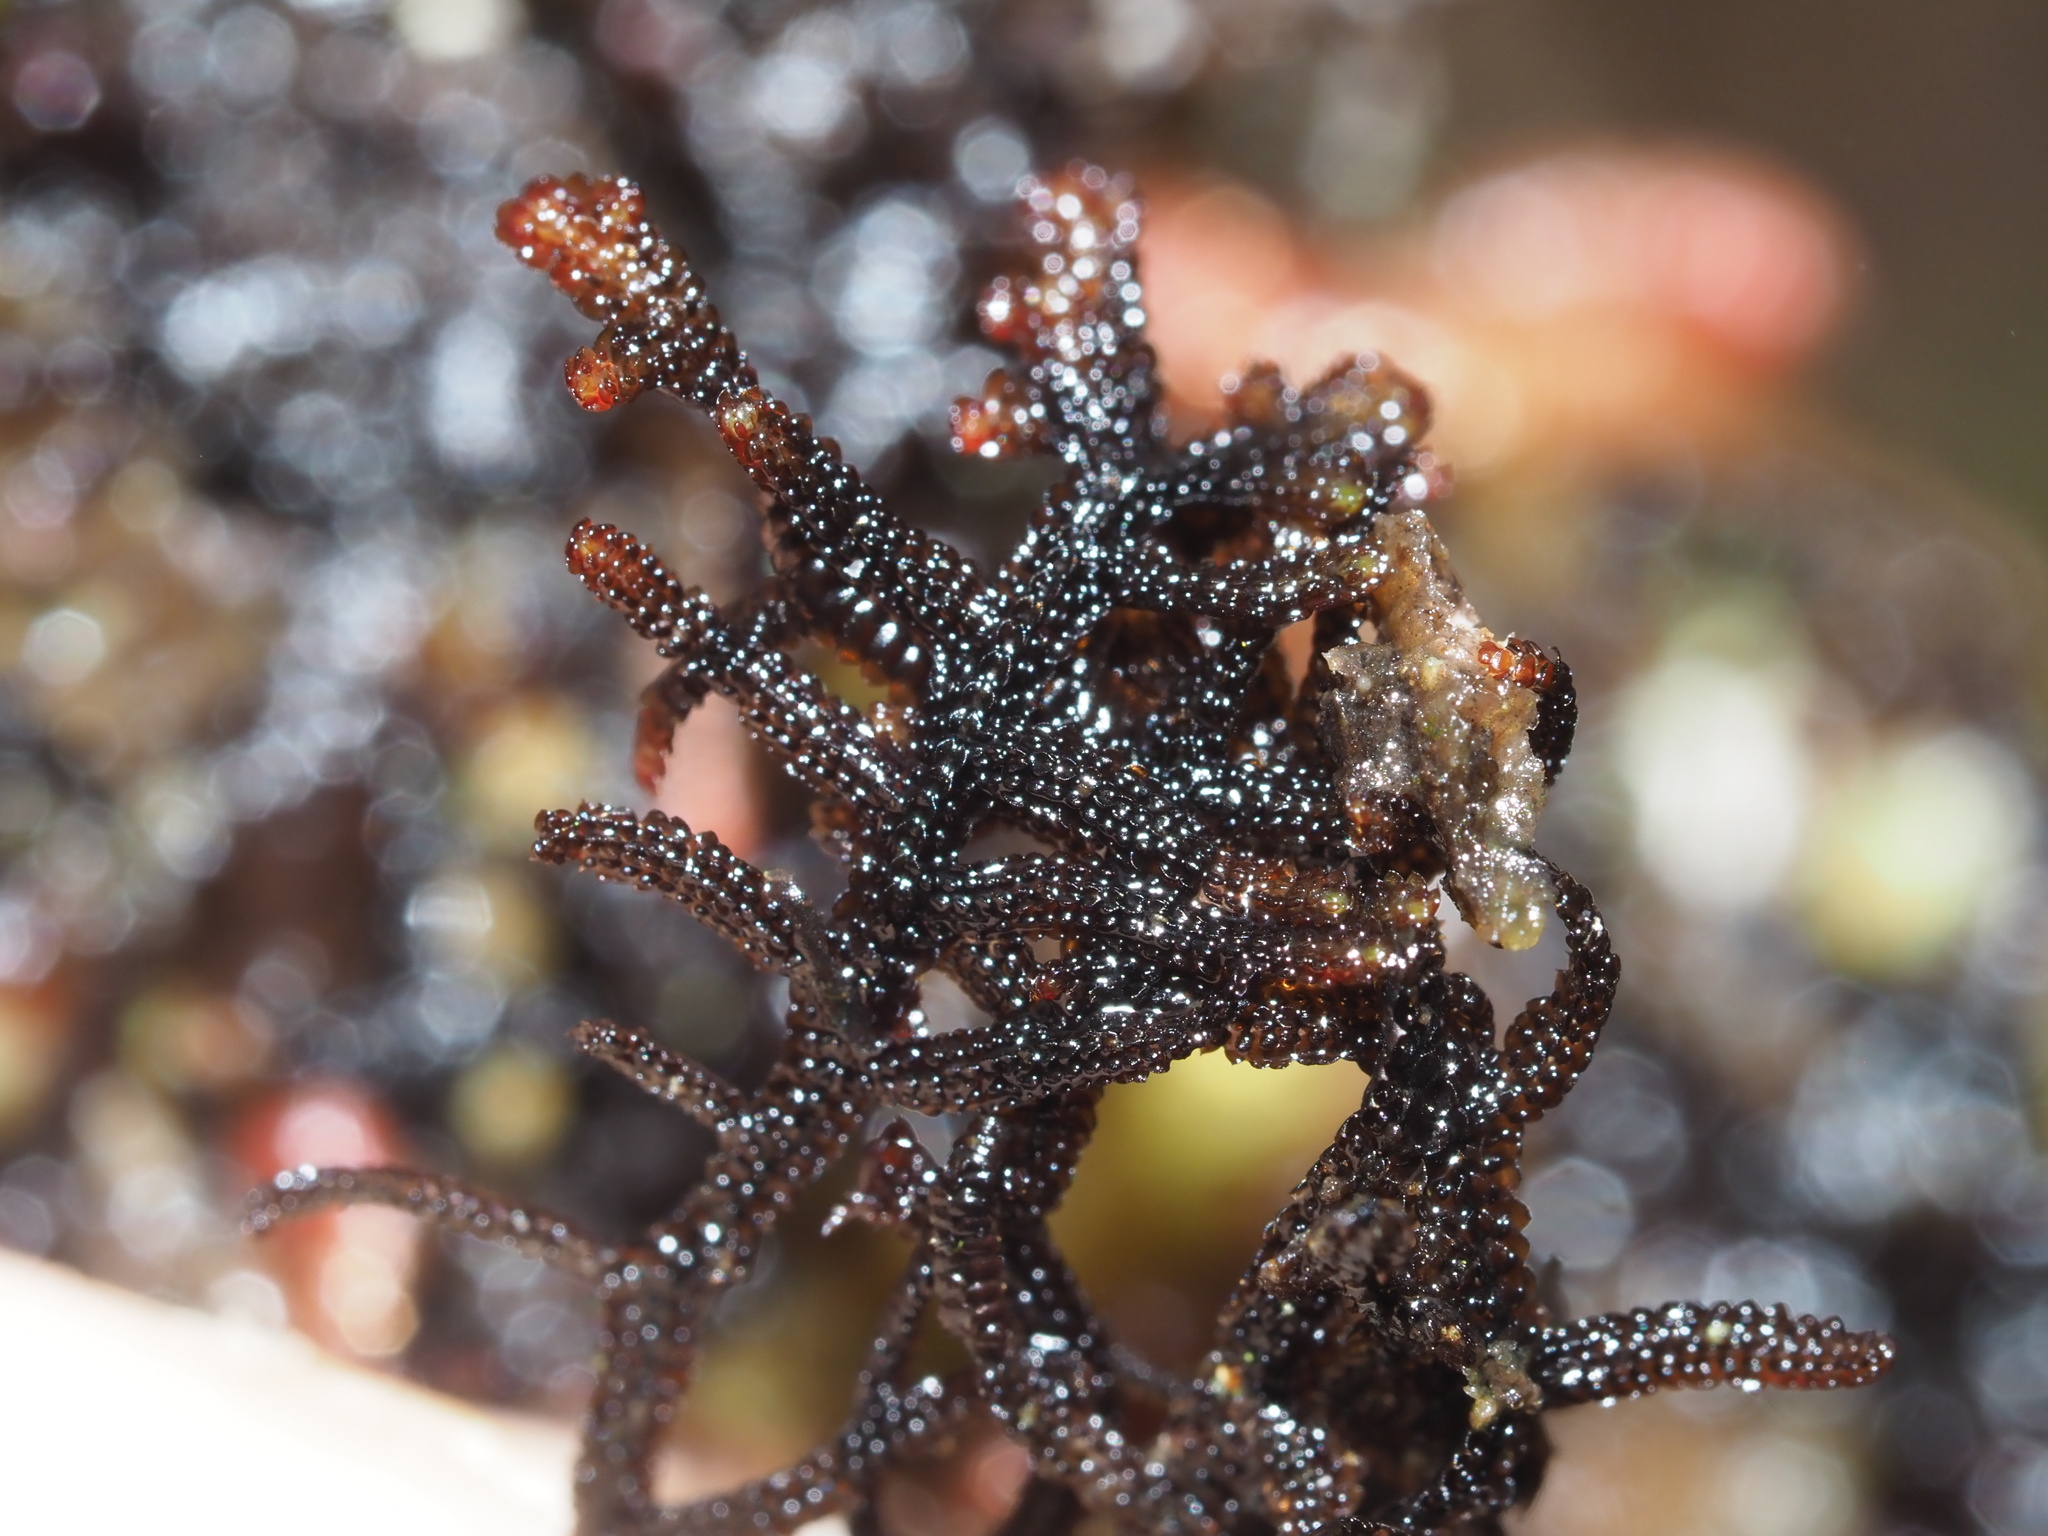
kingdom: Plantae
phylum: Marchantiophyta
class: Jungermanniopsida
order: Porellales
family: Frullaniaceae
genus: Frullania
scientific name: Frullania apiculata
